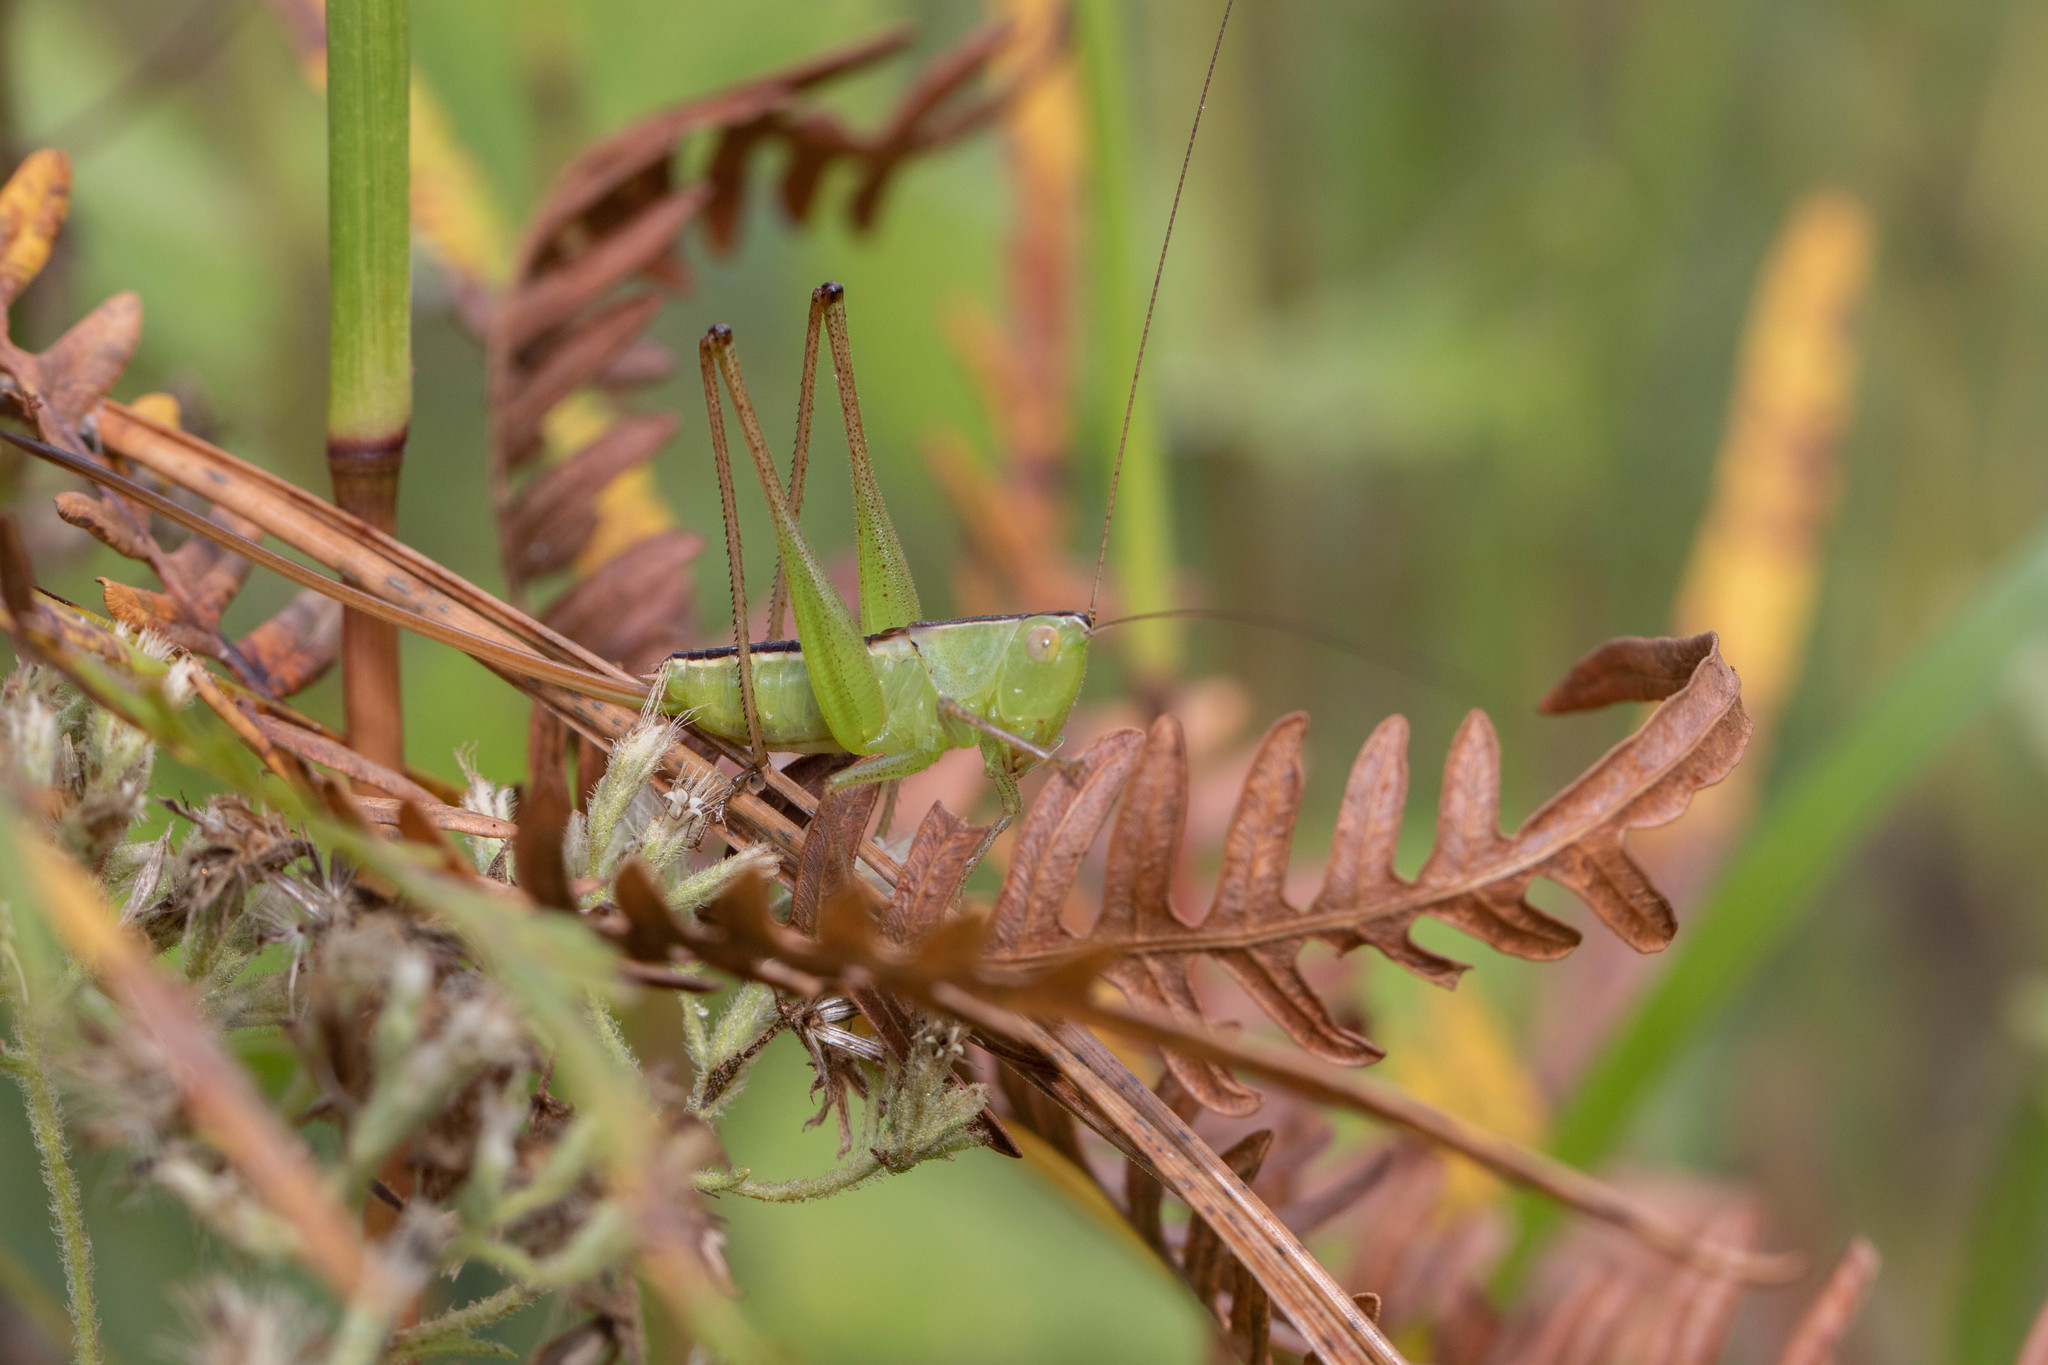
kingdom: Animalia
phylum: Arthropoda
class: Insecta
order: Orthoptera
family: Tettigoniidae
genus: Conocephalus
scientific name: Conocephalus strictus
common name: Straight-lanced katydid
